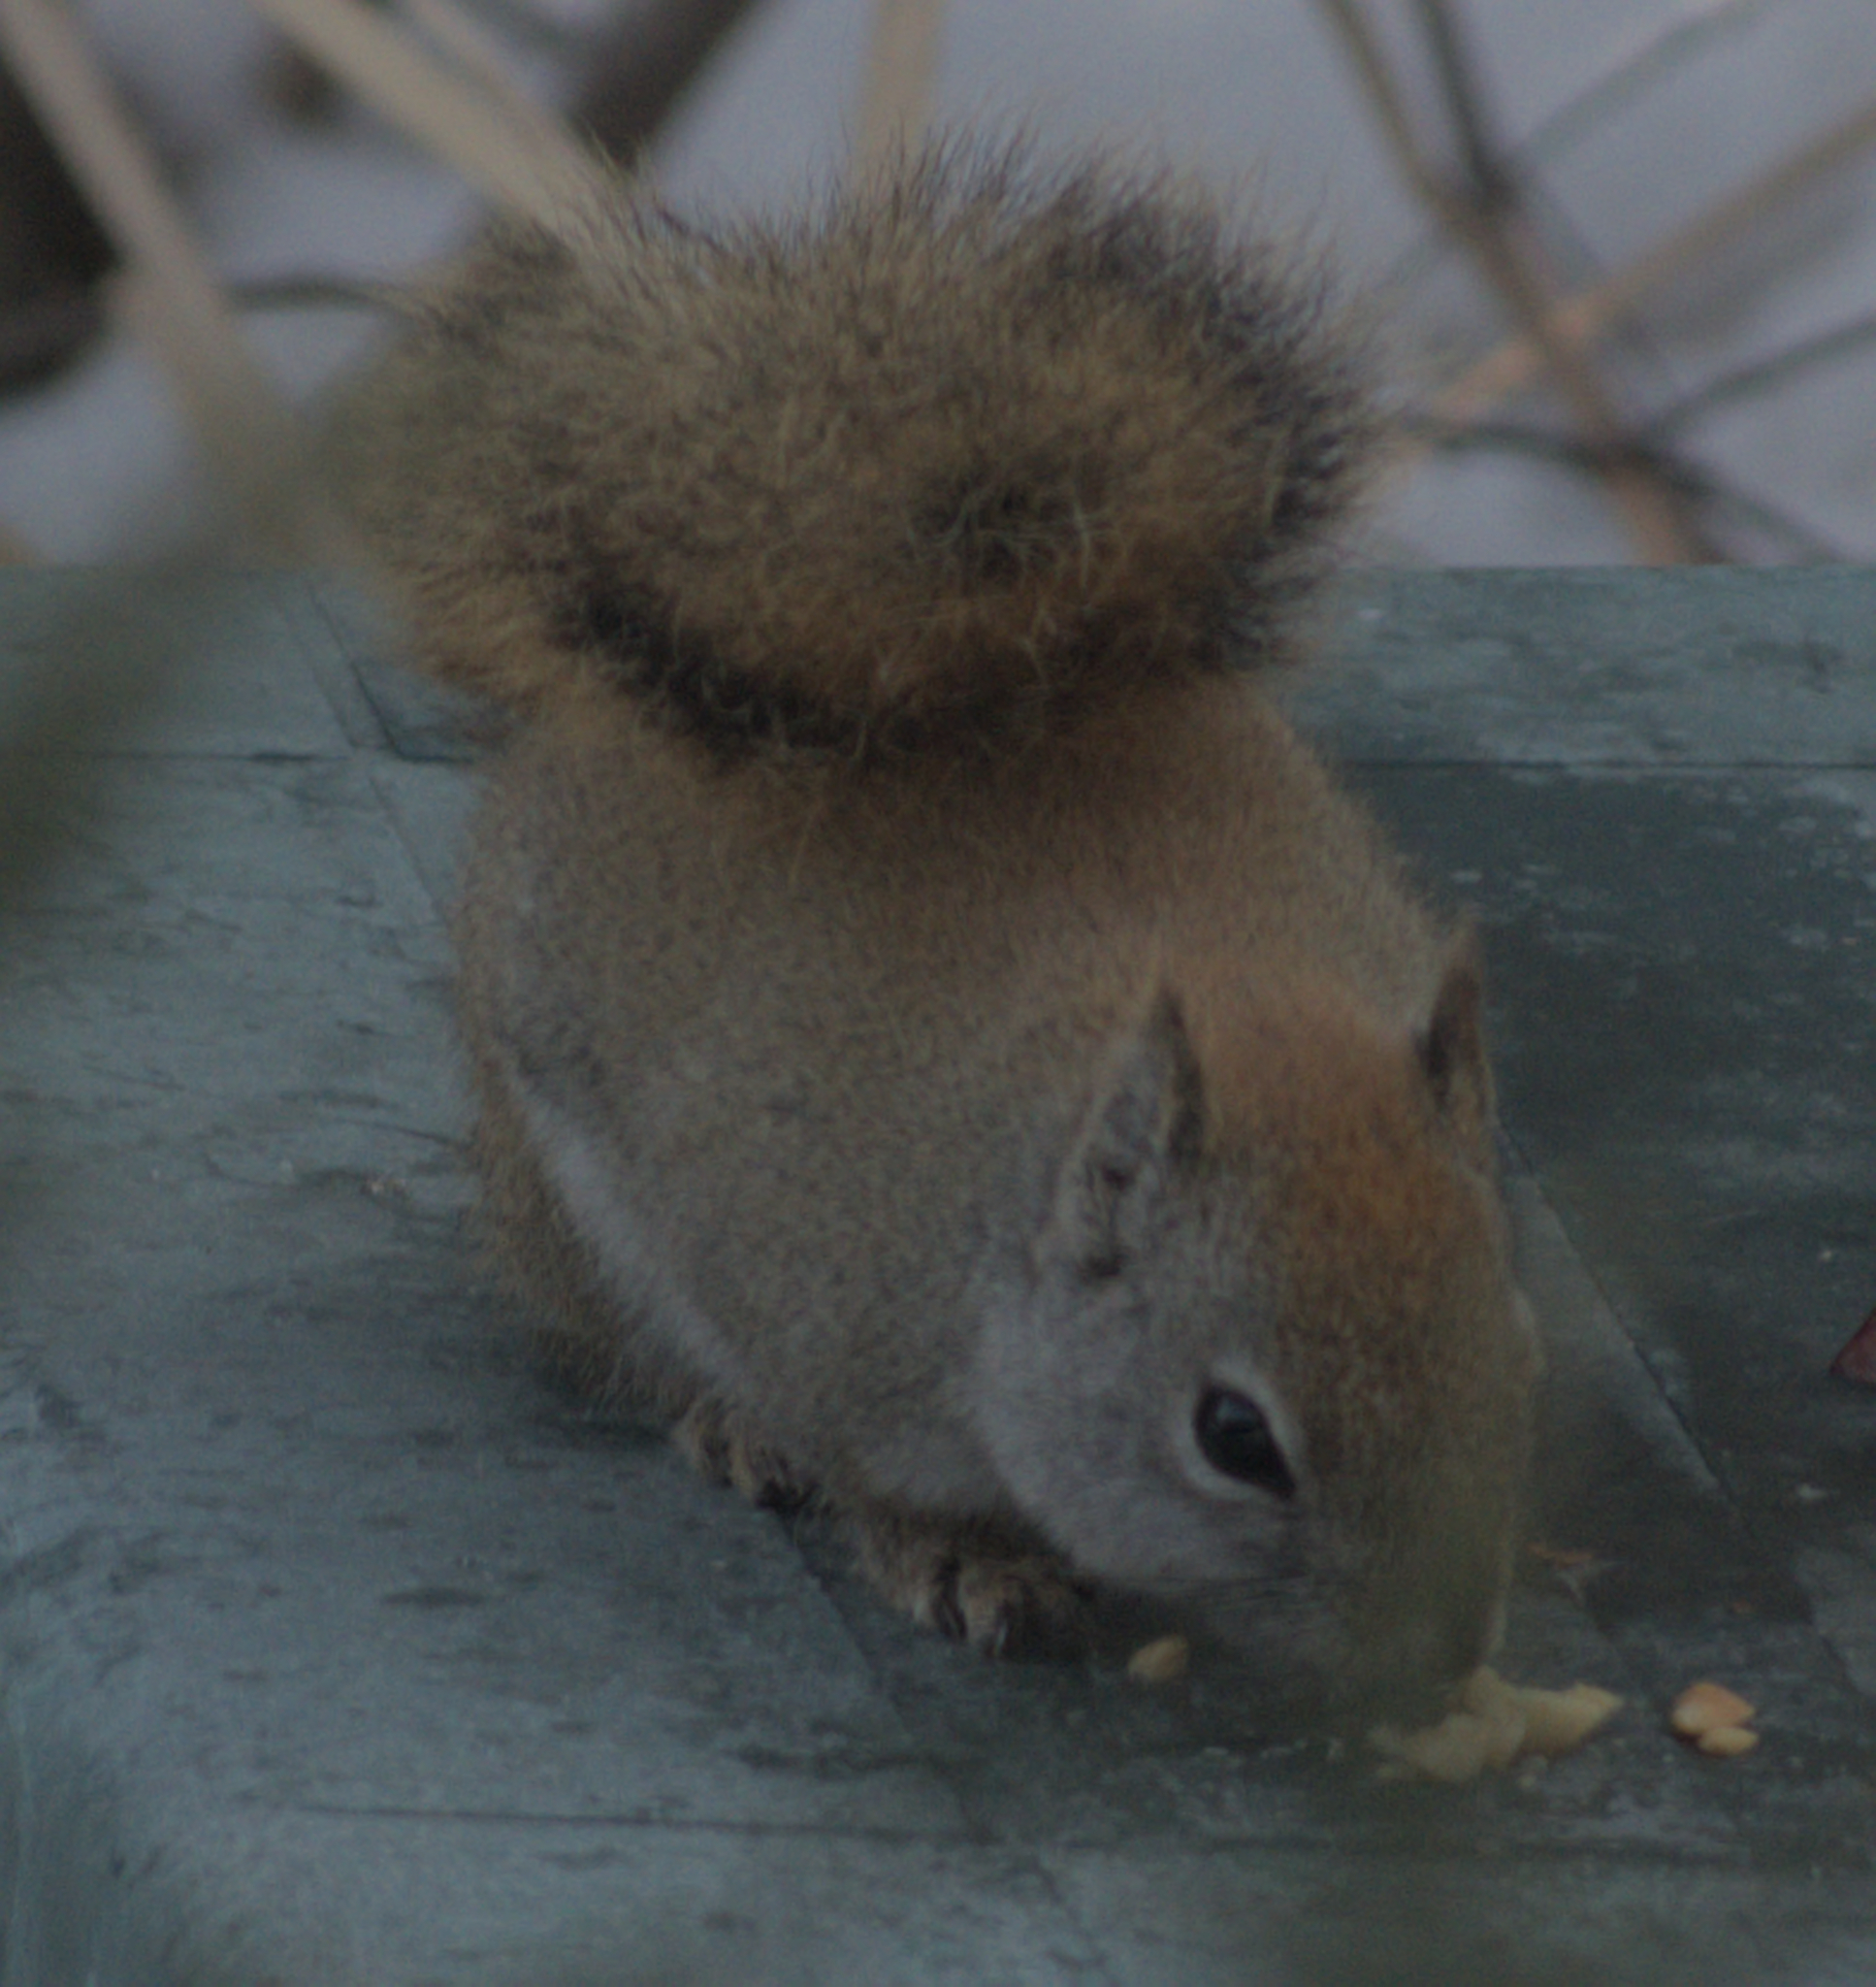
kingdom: Animalia
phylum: Chordata
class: Mammalia
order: Rodentia
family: Sciuridae
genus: Tamiasciurus
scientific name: Tamiasciurus hudsonicus
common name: Red squirrel
